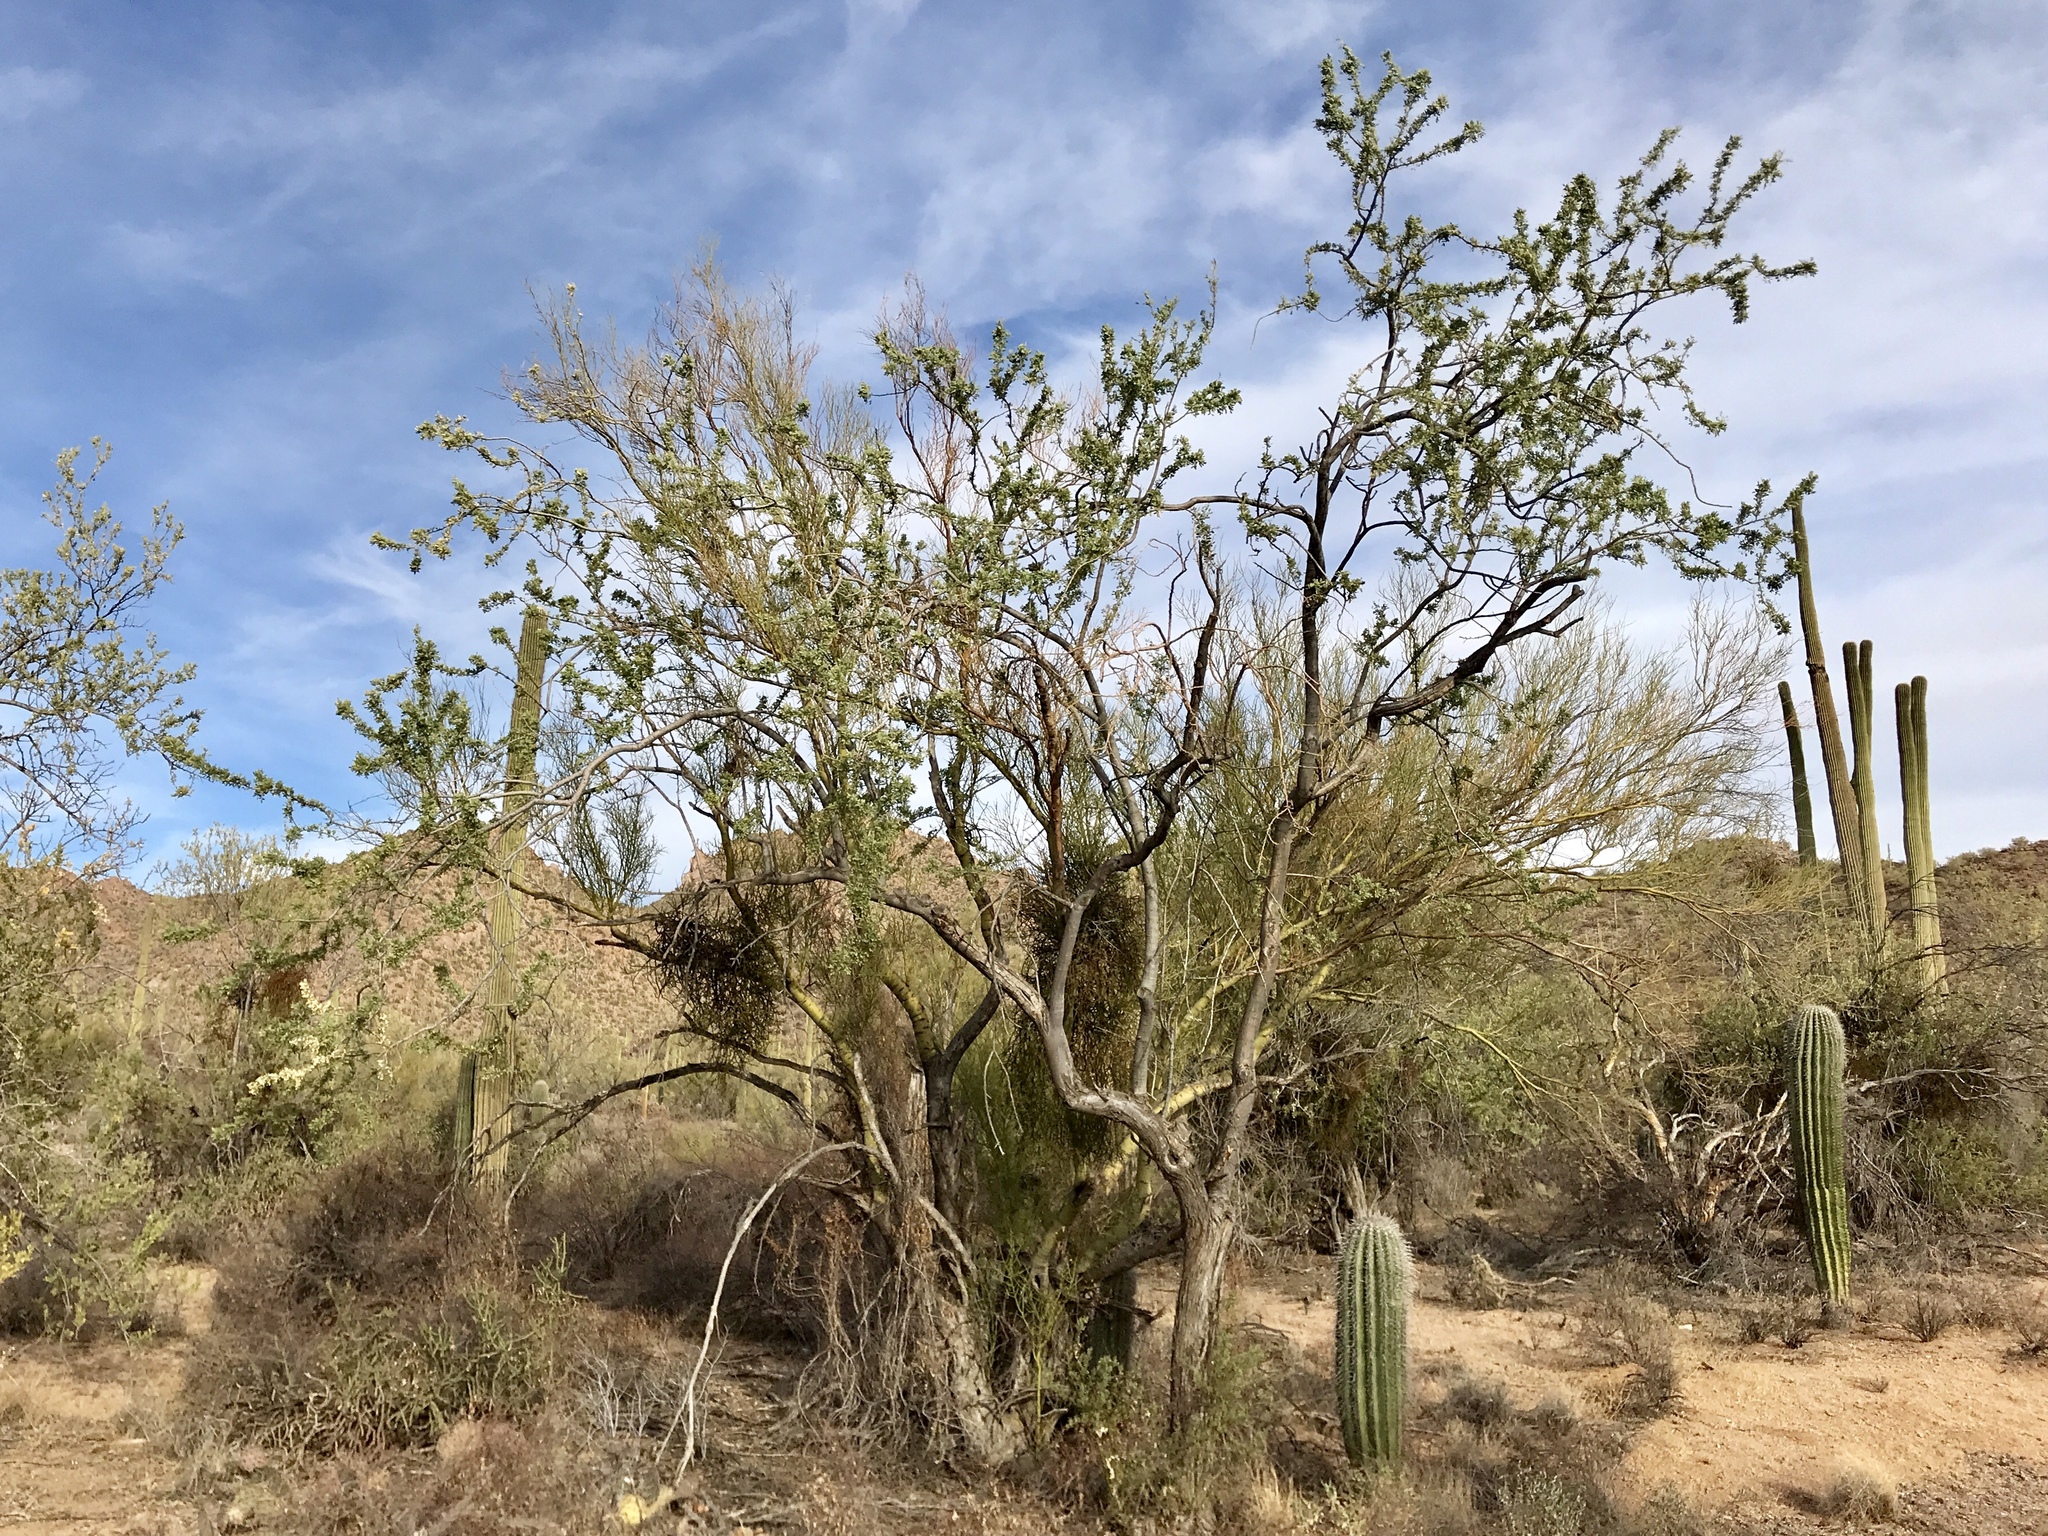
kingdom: Plantae
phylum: Tracheophyta
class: Magnoliopsida
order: Fabales
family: Fabaceae
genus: Olneya
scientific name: Olneya tesota
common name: Desert ironwood
